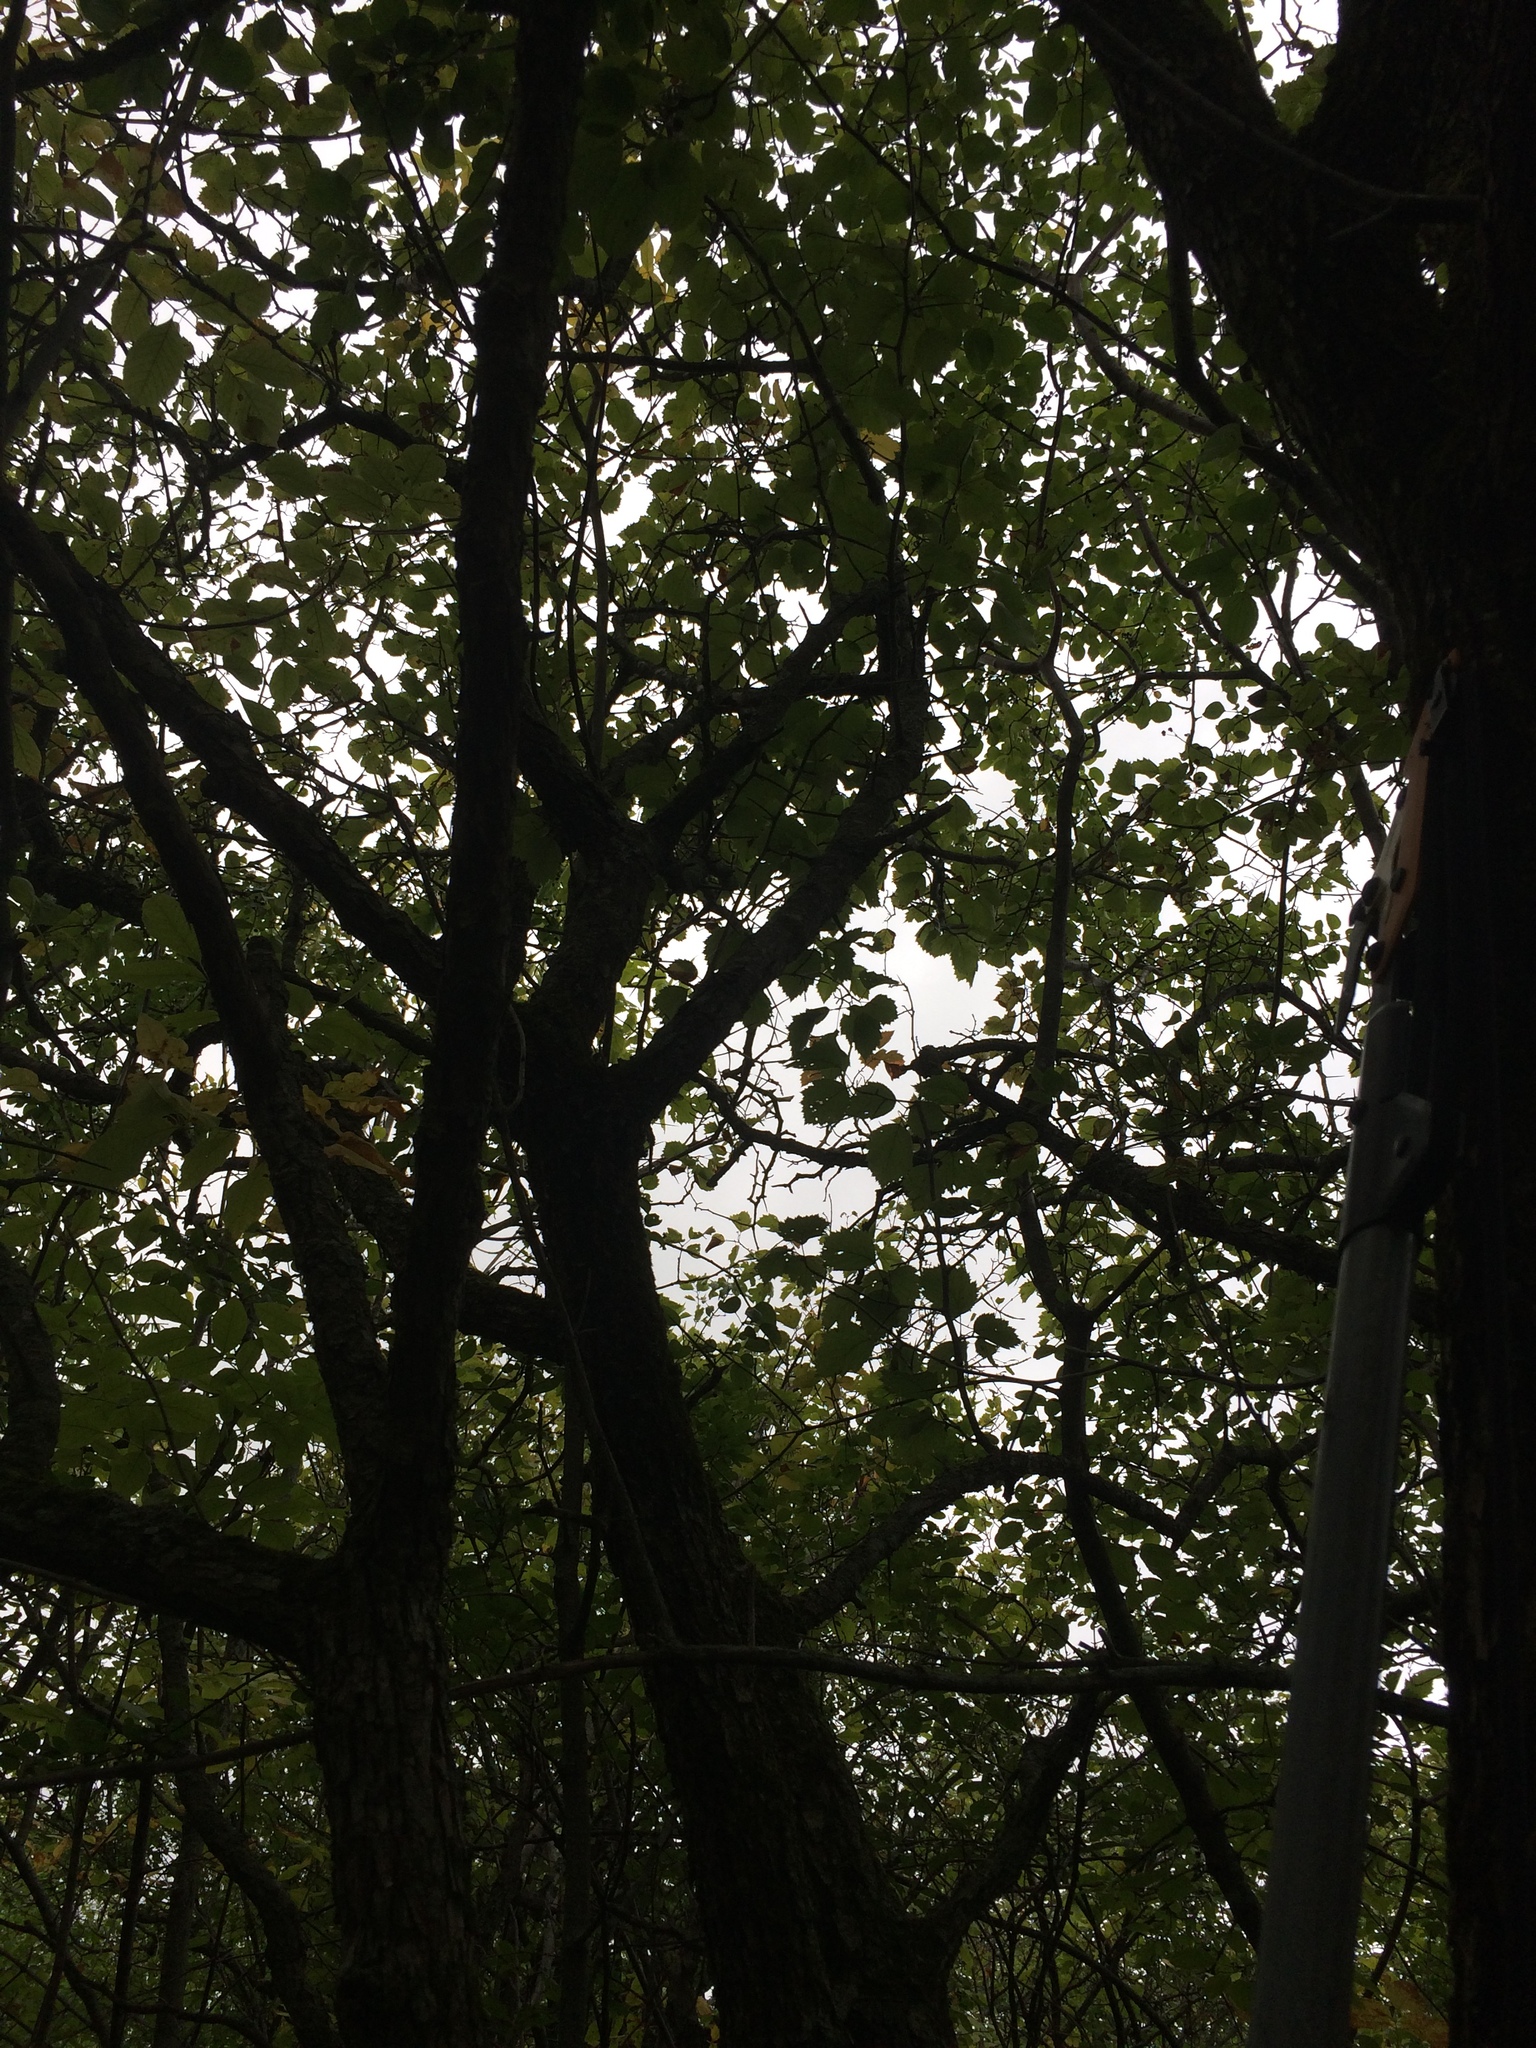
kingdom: Plantae
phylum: Tracheophyta
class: Magnoliopsida
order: Rosales
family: Rosaceae
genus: Crataegus
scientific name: Crataegus submollis
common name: Hairy cockspurthorn
